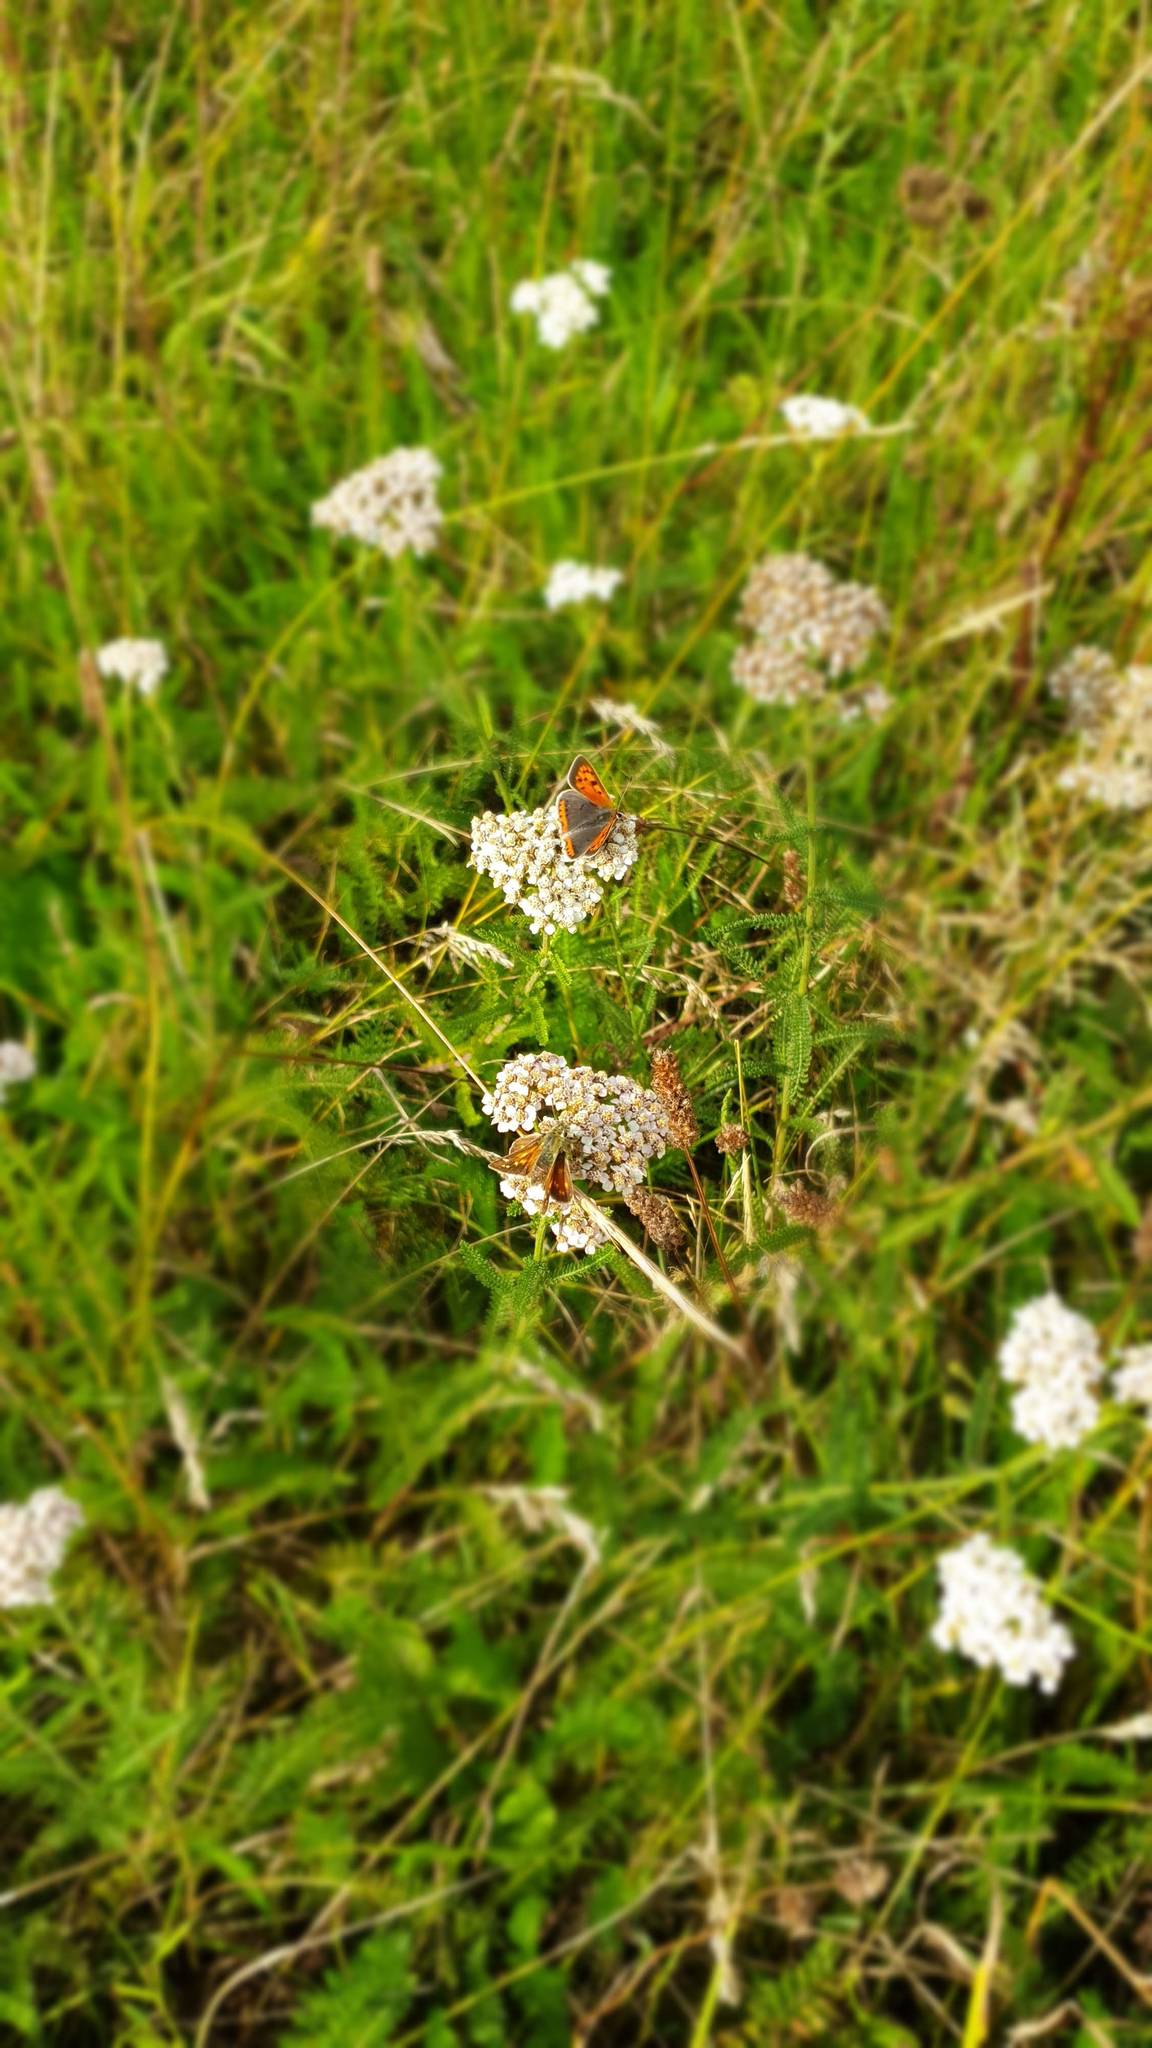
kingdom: Animalia
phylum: Arthropoda
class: Insecta
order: Lepidoptera
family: Hesperiidae
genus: Hesperia
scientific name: Hesperia comma
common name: Common branded skipper
